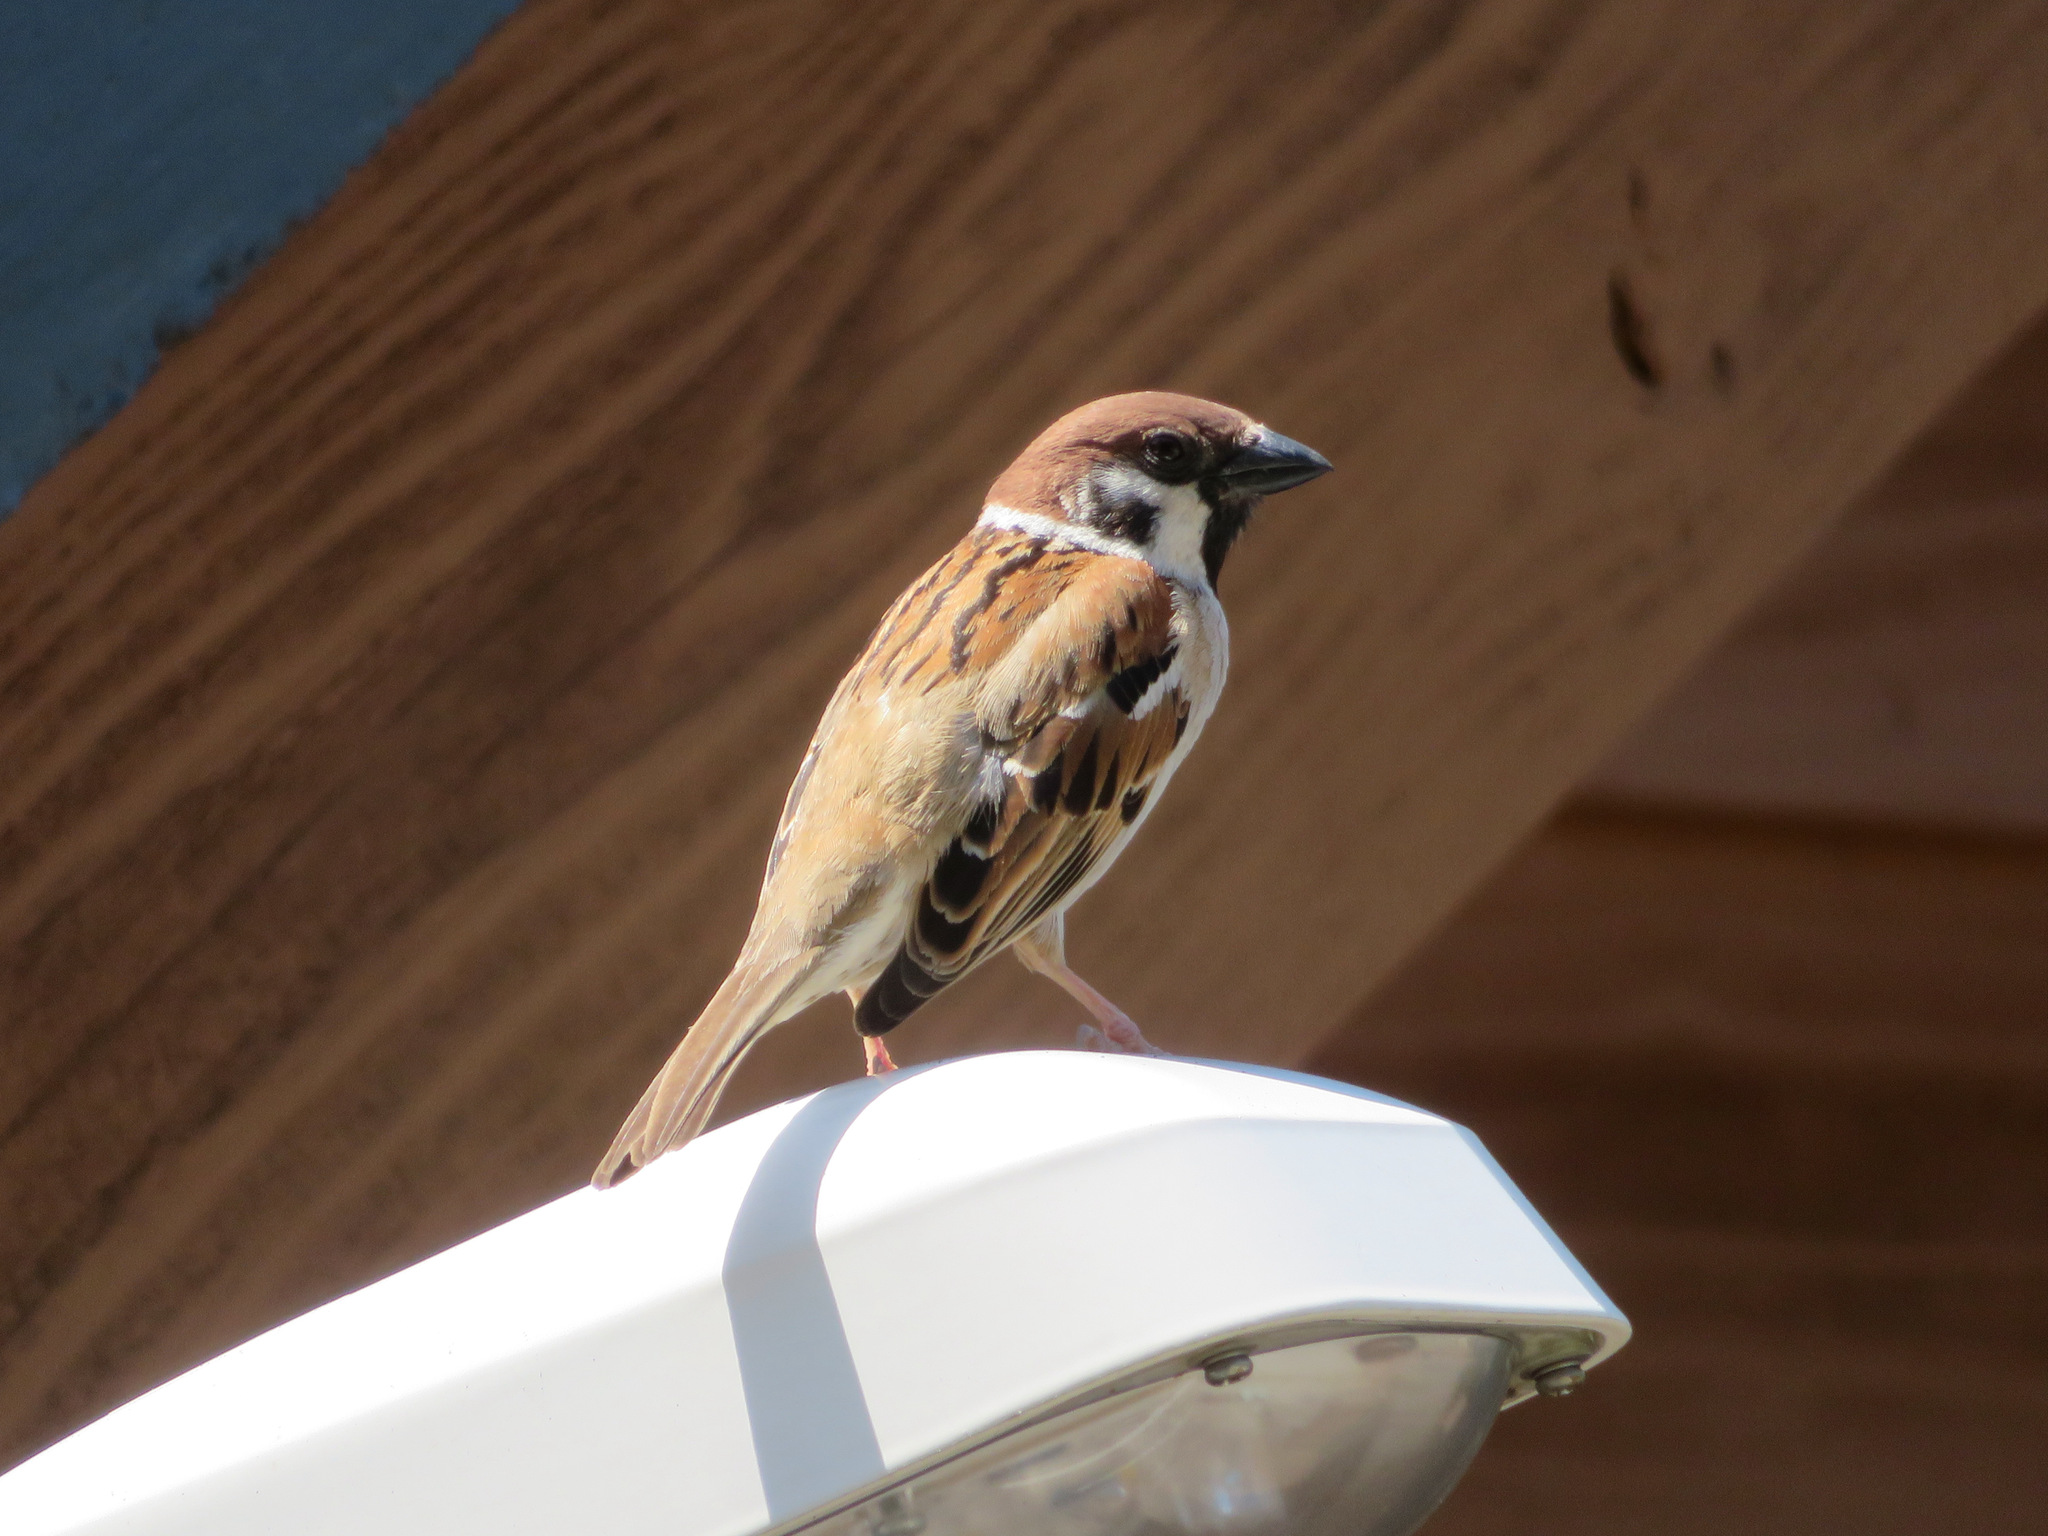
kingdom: Animalia
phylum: Chordata
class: Aves
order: Passeriformes
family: Passeridae
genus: Passer
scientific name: Passer montanus
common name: Eurasian tree sparrow
